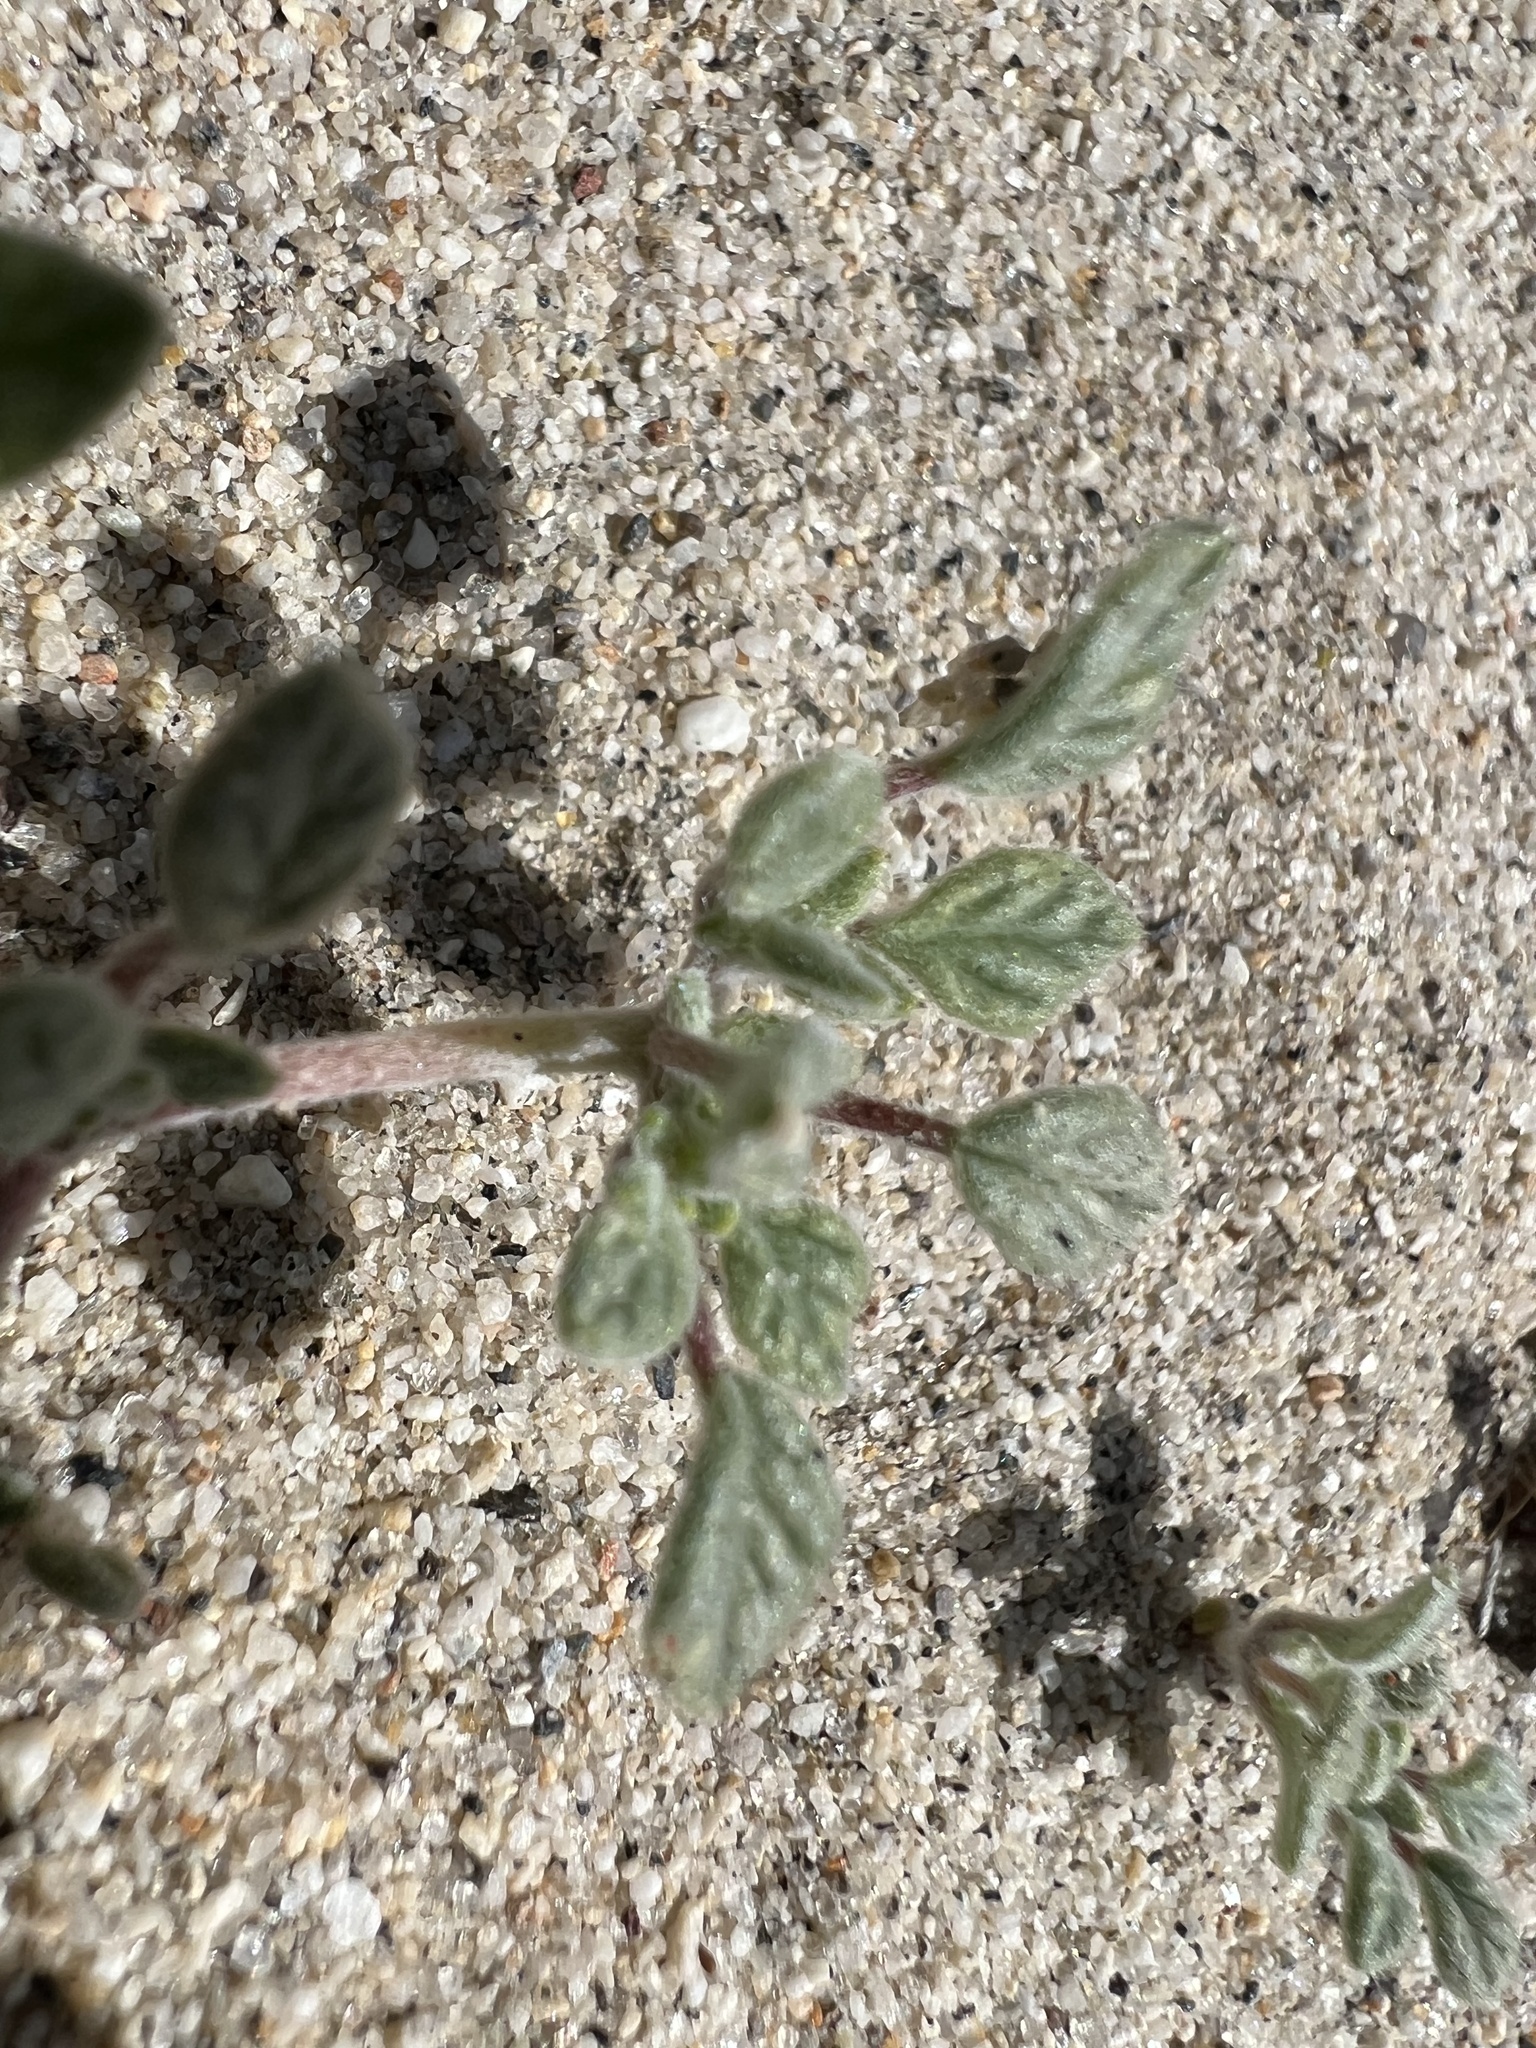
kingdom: Plantae
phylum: Tracheophyta
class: Magnoliopsida
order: Boraginales
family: Ehretiaceae
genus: Tiquilia
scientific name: Tiquilia nuttallii
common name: Rosette tiquilia
